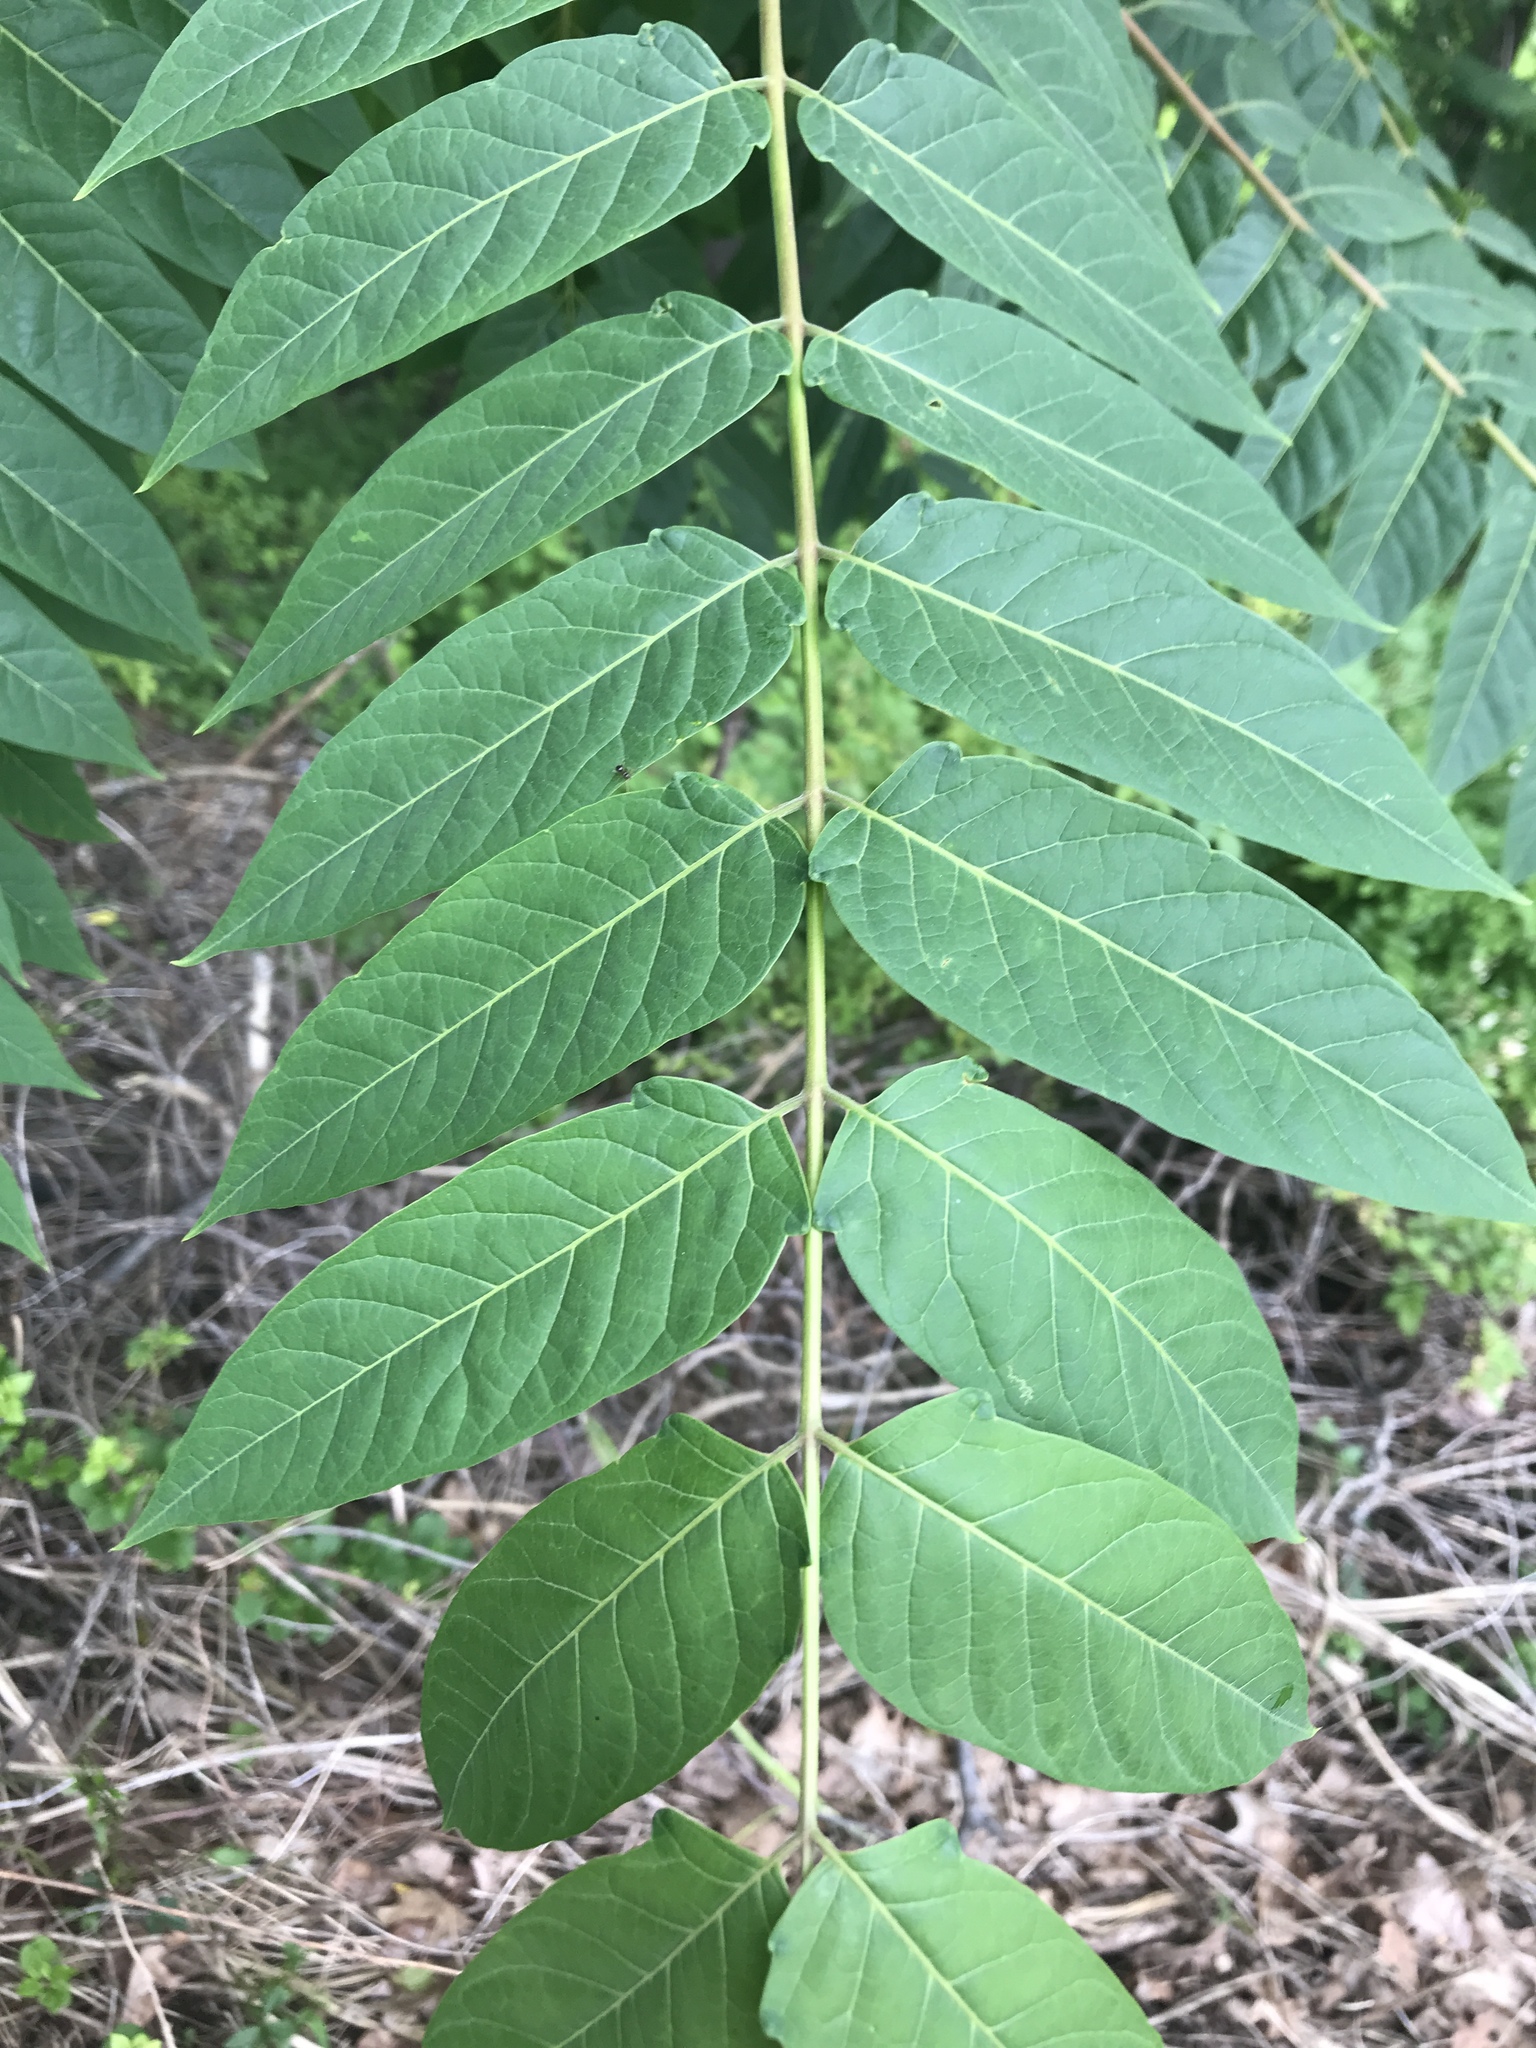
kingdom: Plantae
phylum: Tracheophyta
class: Magnoliopsida
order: Sapindales
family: Simaroubaceae
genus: Ailanthus
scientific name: Ailanthus altissima
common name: Tree-of-heaven
